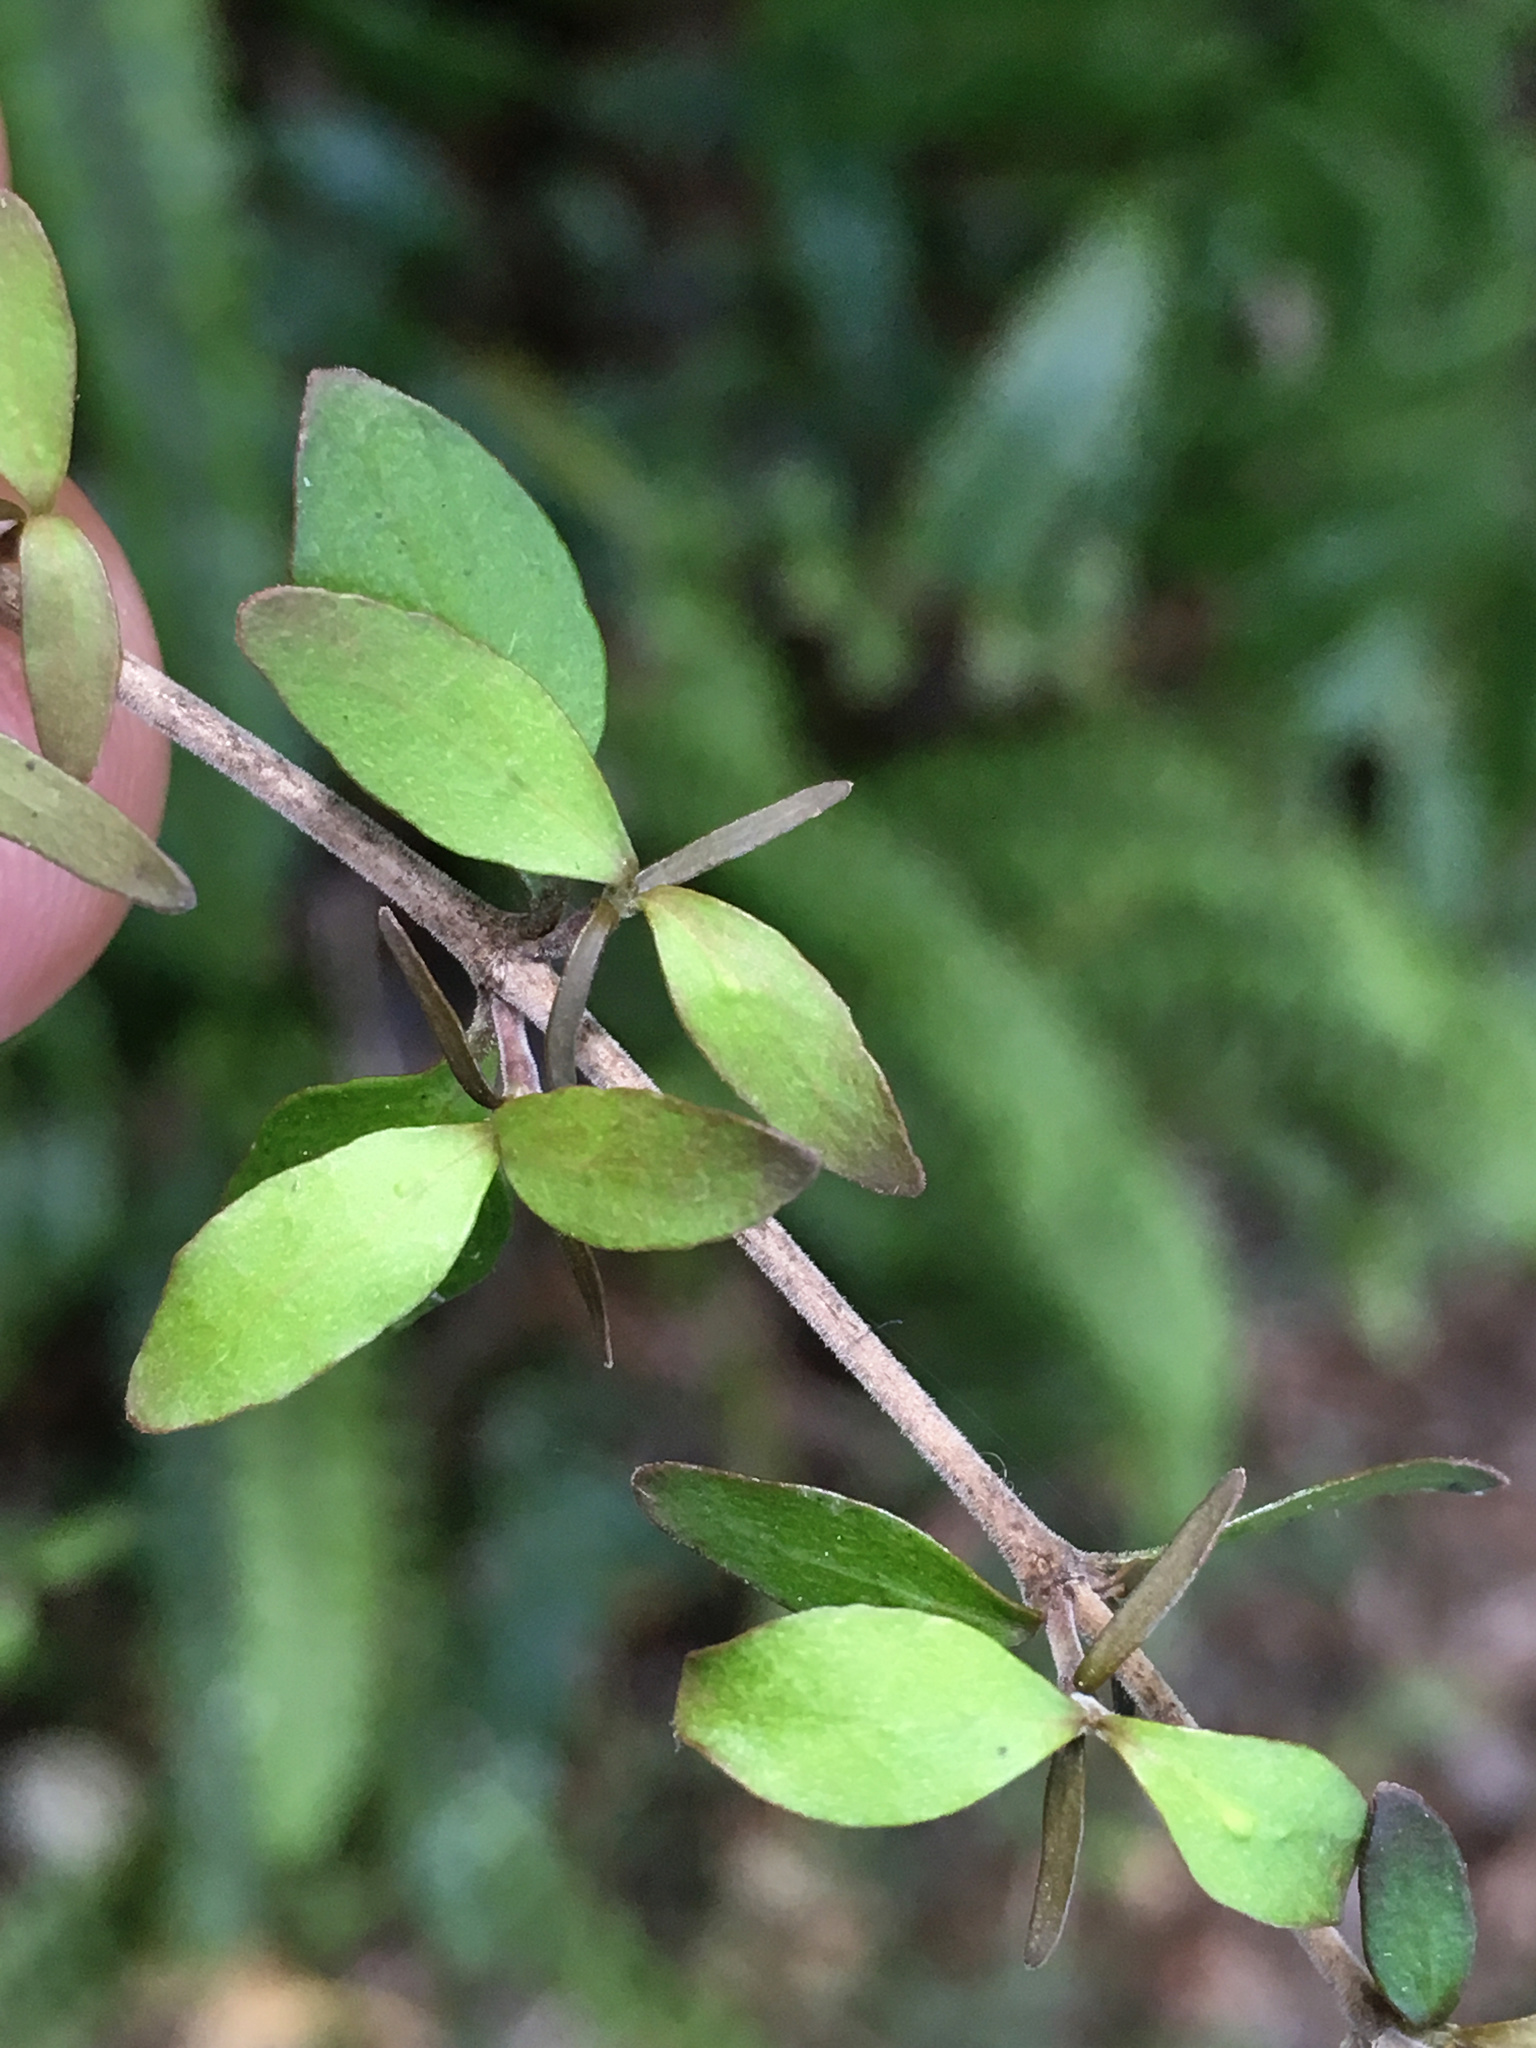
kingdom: Plantae
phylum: Tracheophyta
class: Magnoliopsida
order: Gentianales
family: Rubiaceae
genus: Coprosma
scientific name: Coprosma rhamnoides
